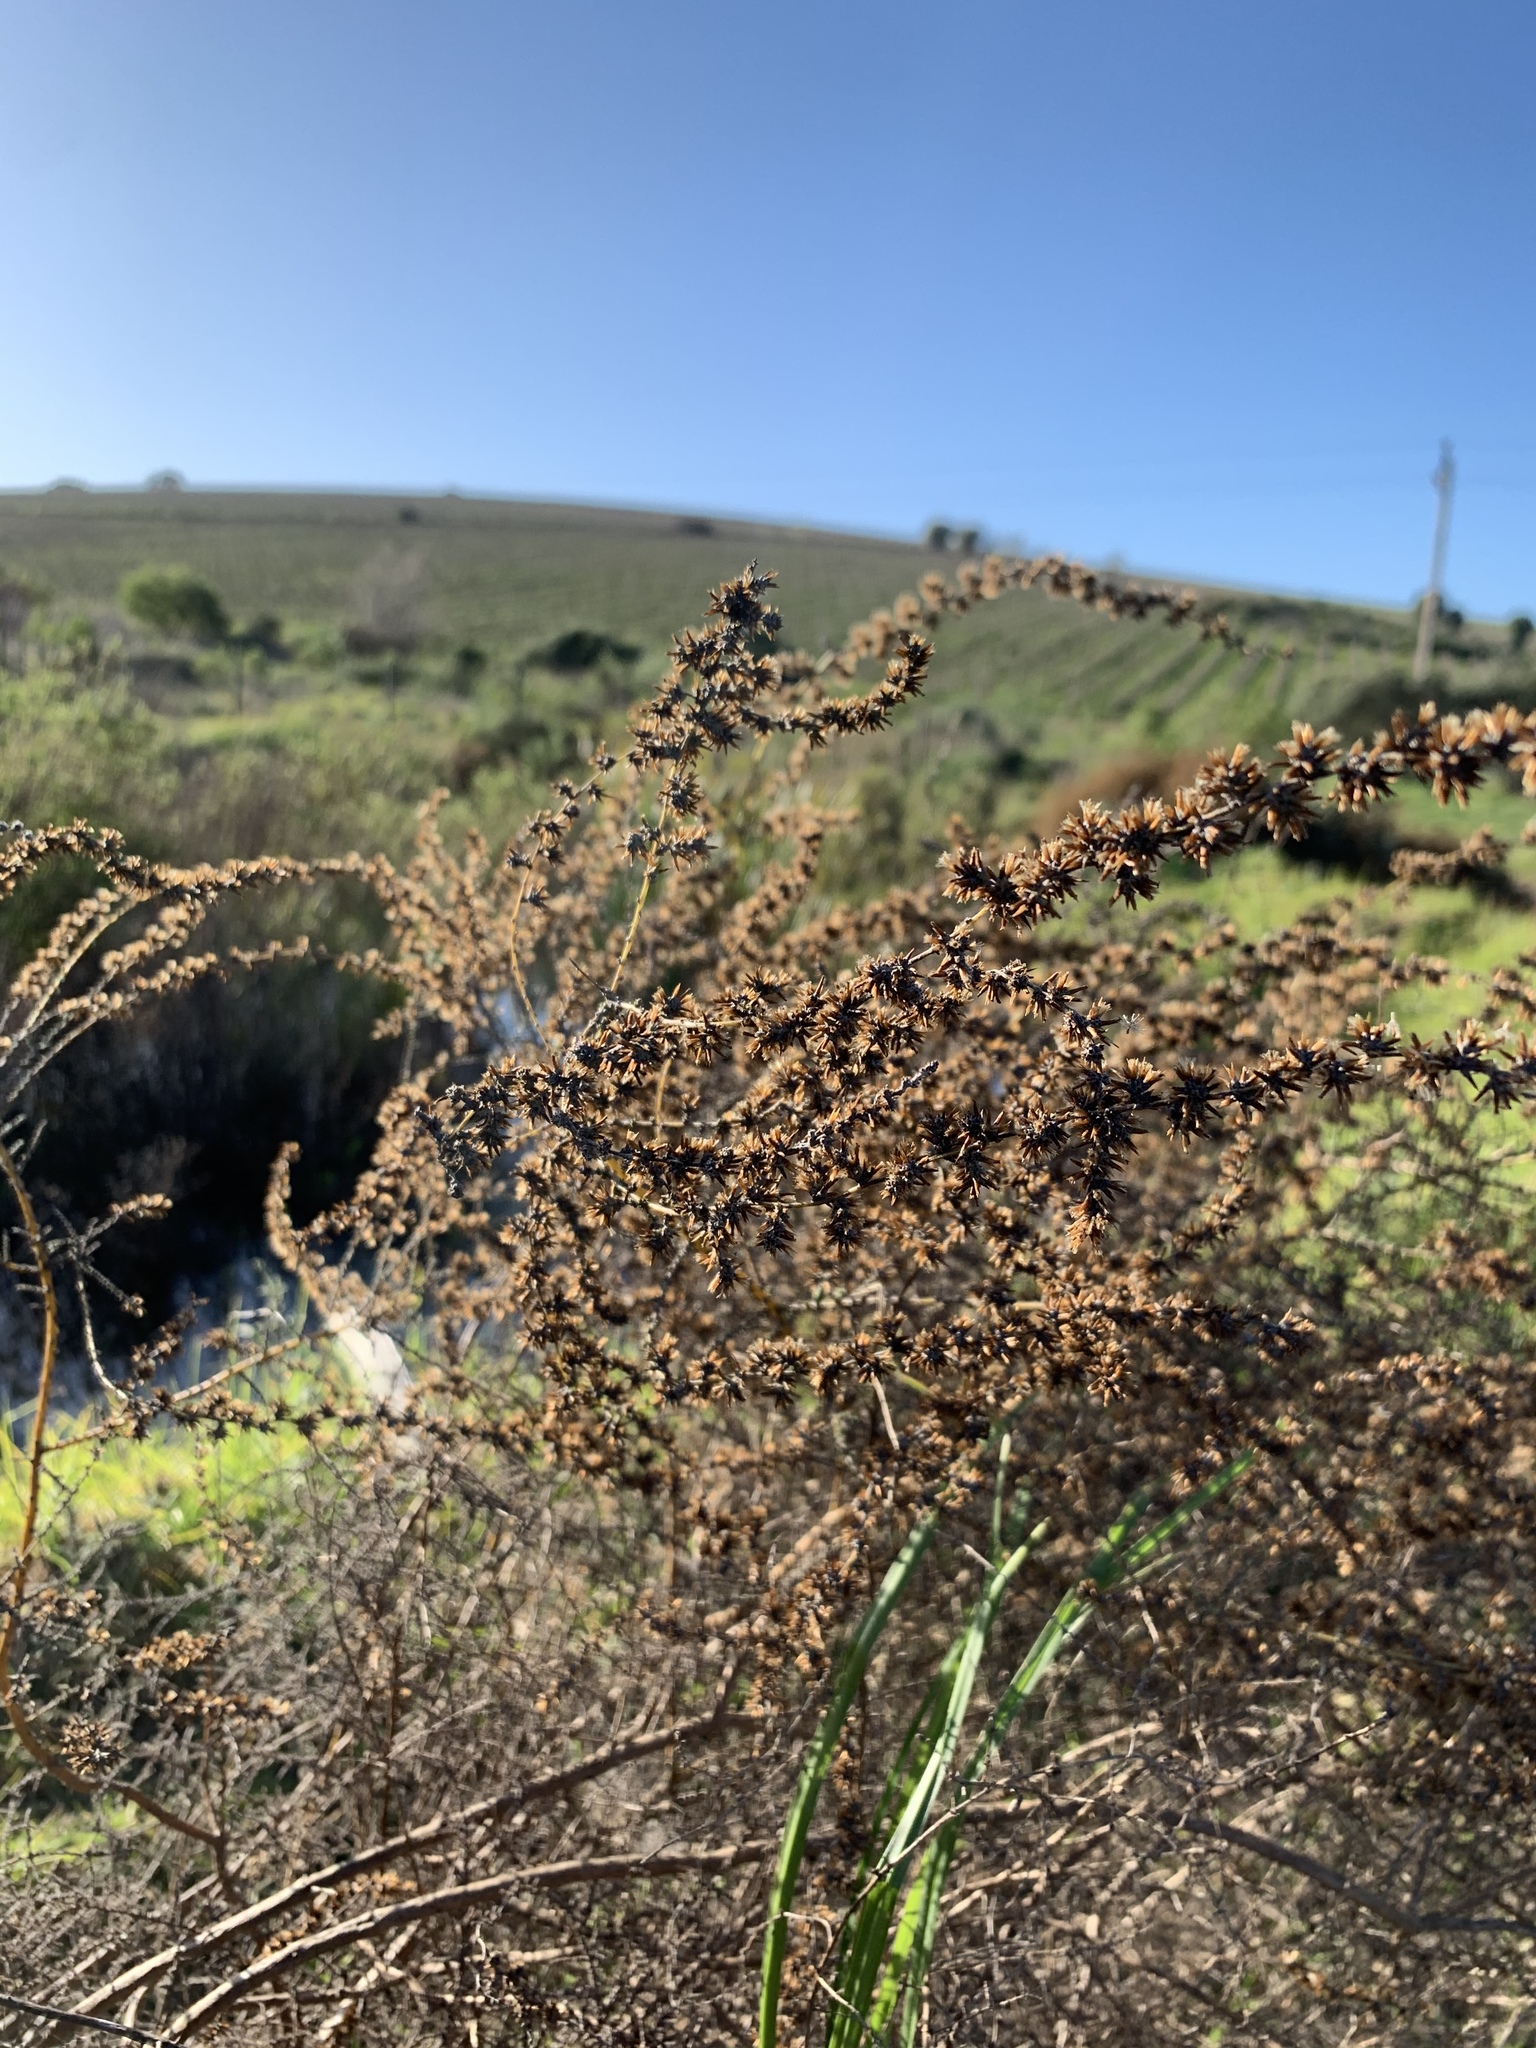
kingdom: Plantae
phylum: Tracheophyta
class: Magnoliopsida
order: Asterales
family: Asteraceae
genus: Seriphium
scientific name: Seriphium plumosum
